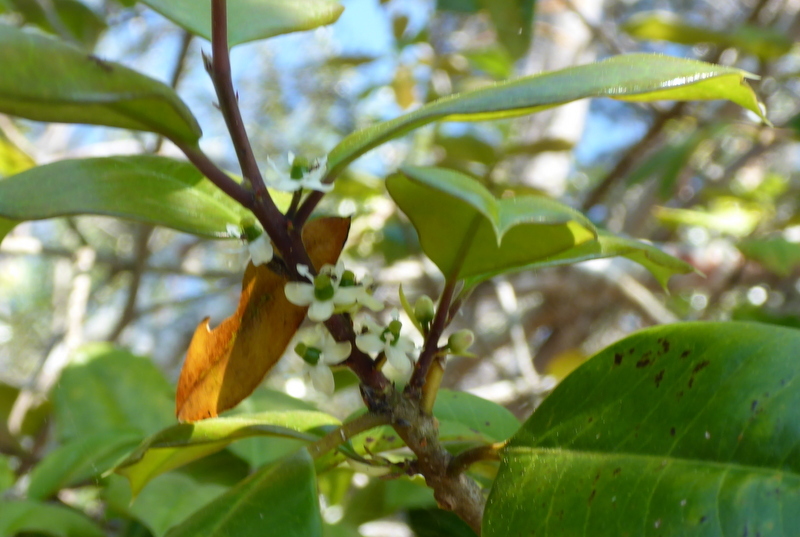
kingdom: Plantae
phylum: Tracheophyta
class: Magnoliopsida
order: Aquifoliales
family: Aquifoliaceae
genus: Ilex
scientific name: Ilex opaca
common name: American holly
